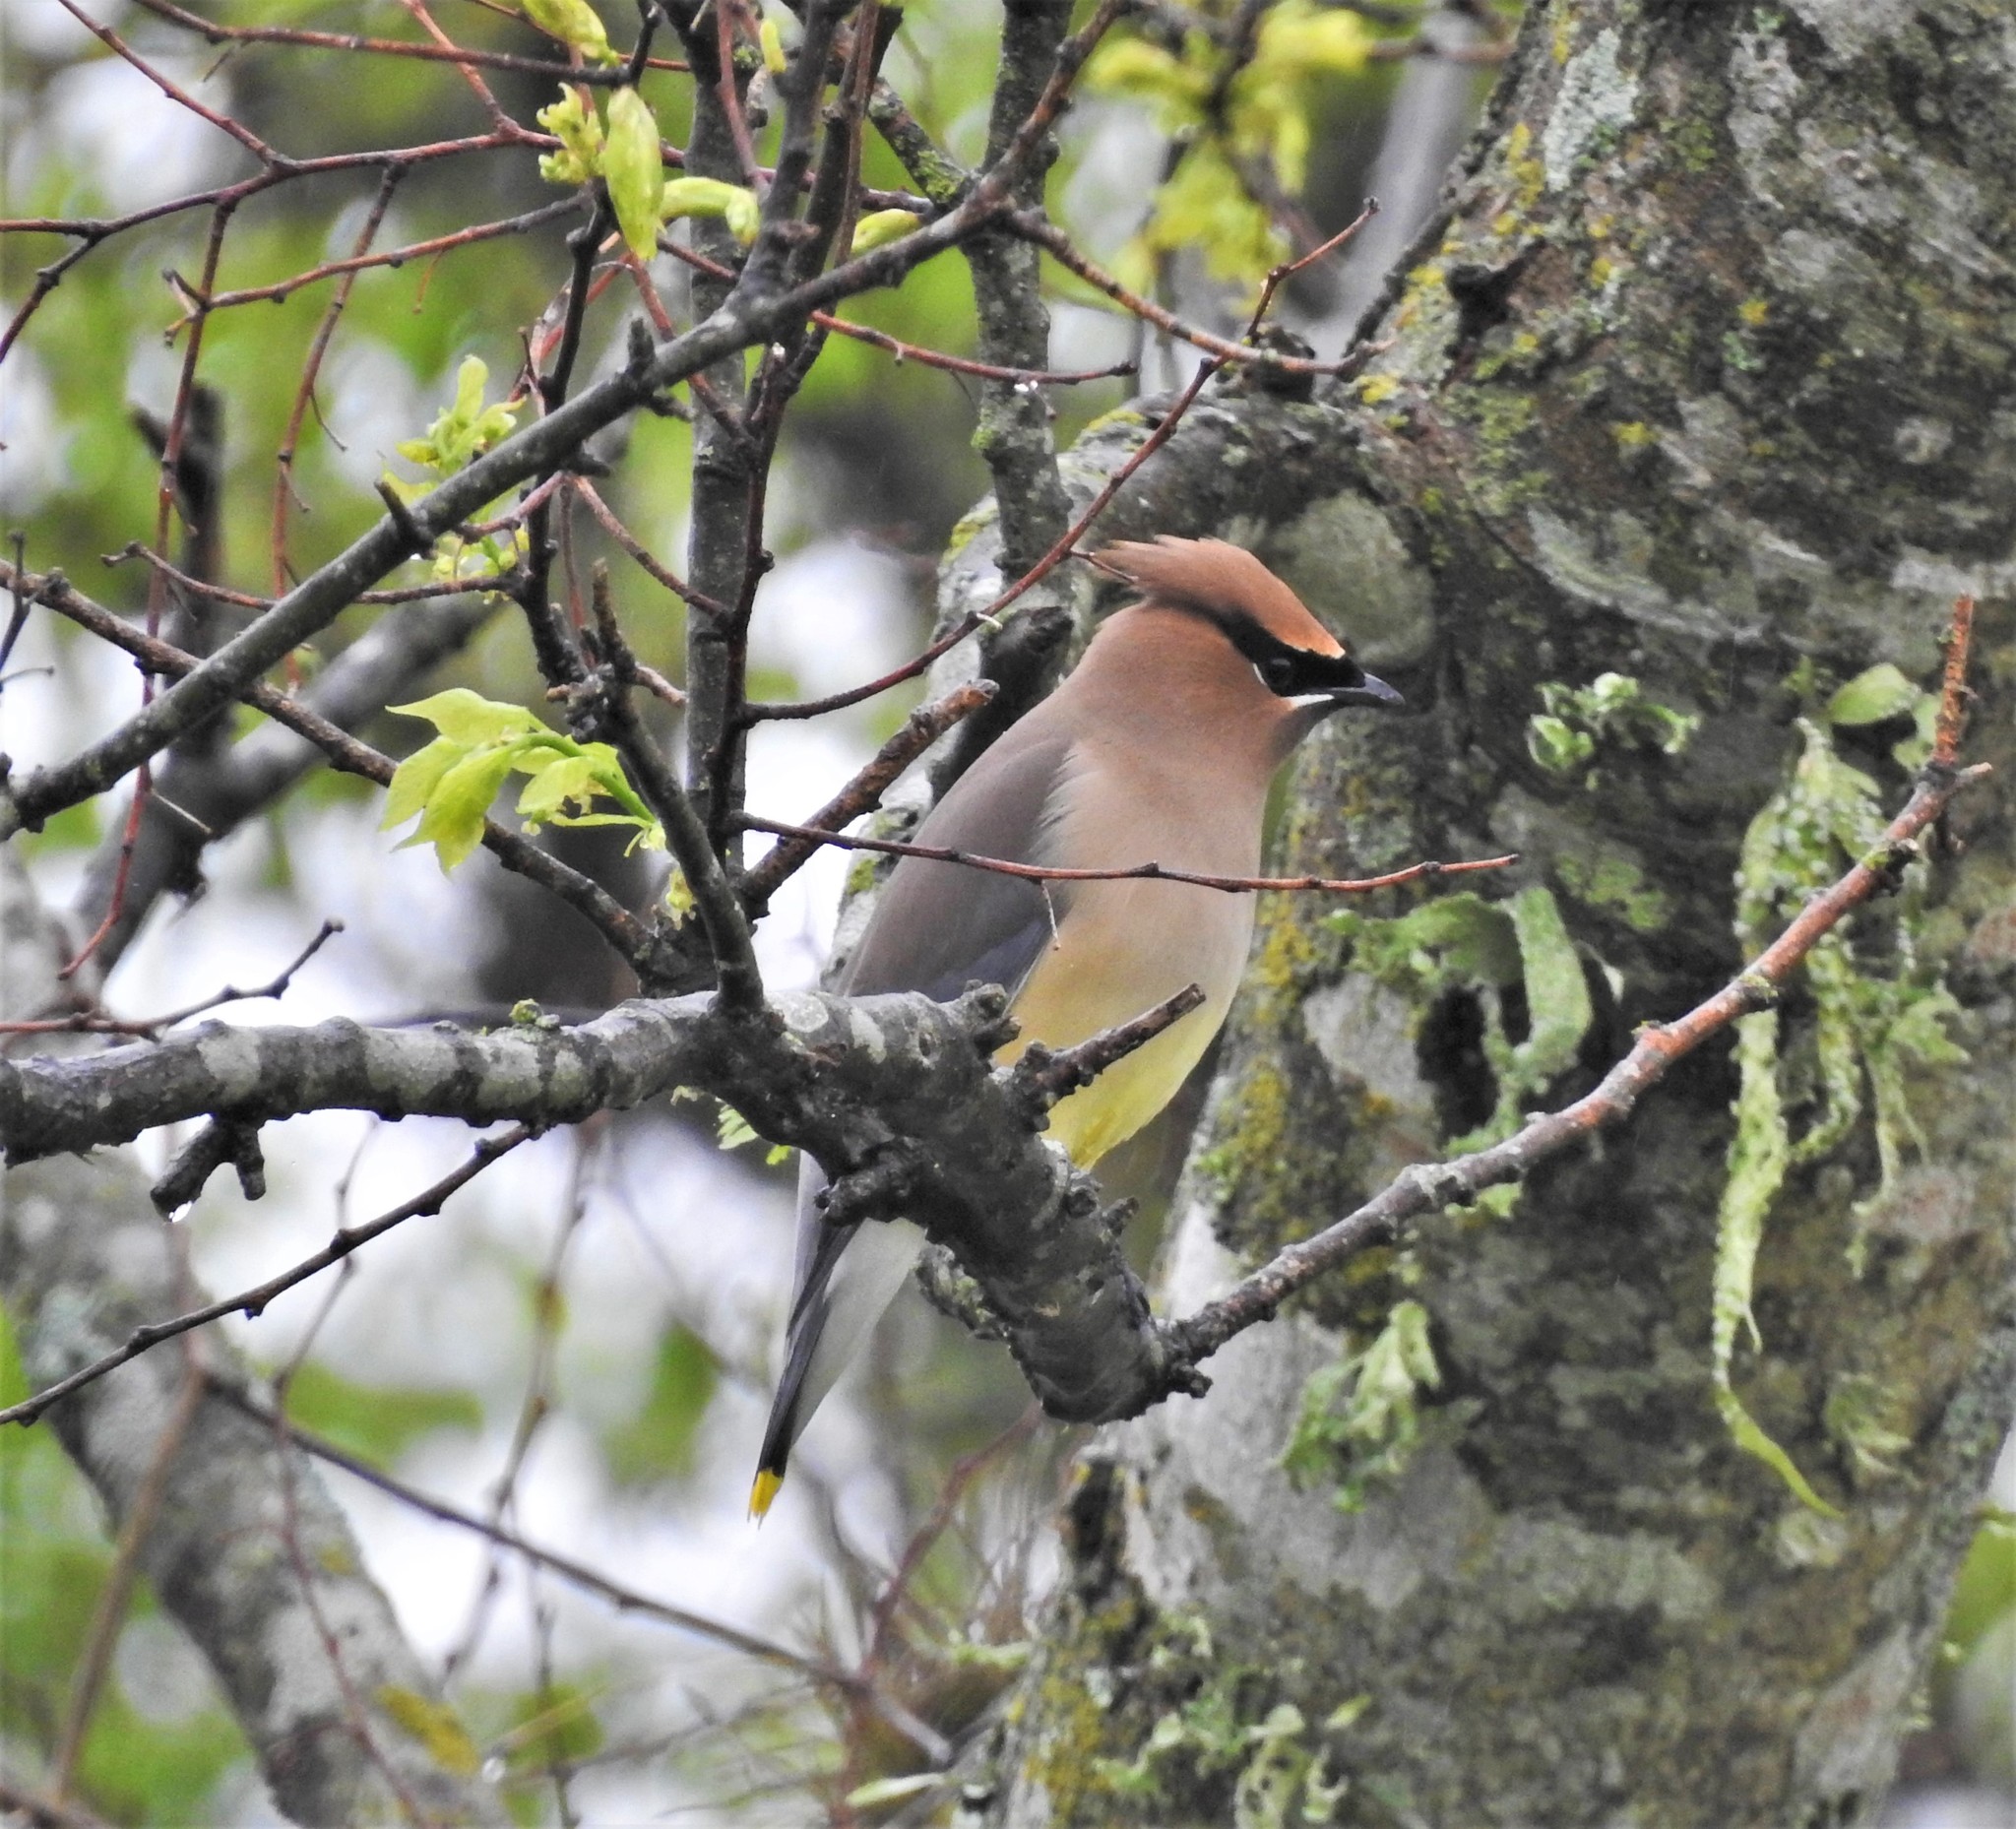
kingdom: Animalia
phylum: Chordata
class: Aves
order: Passeriformes
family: Bombycillidae
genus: Bombycilla
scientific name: Bombycilla cedrorum
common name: Cedar waxwing
